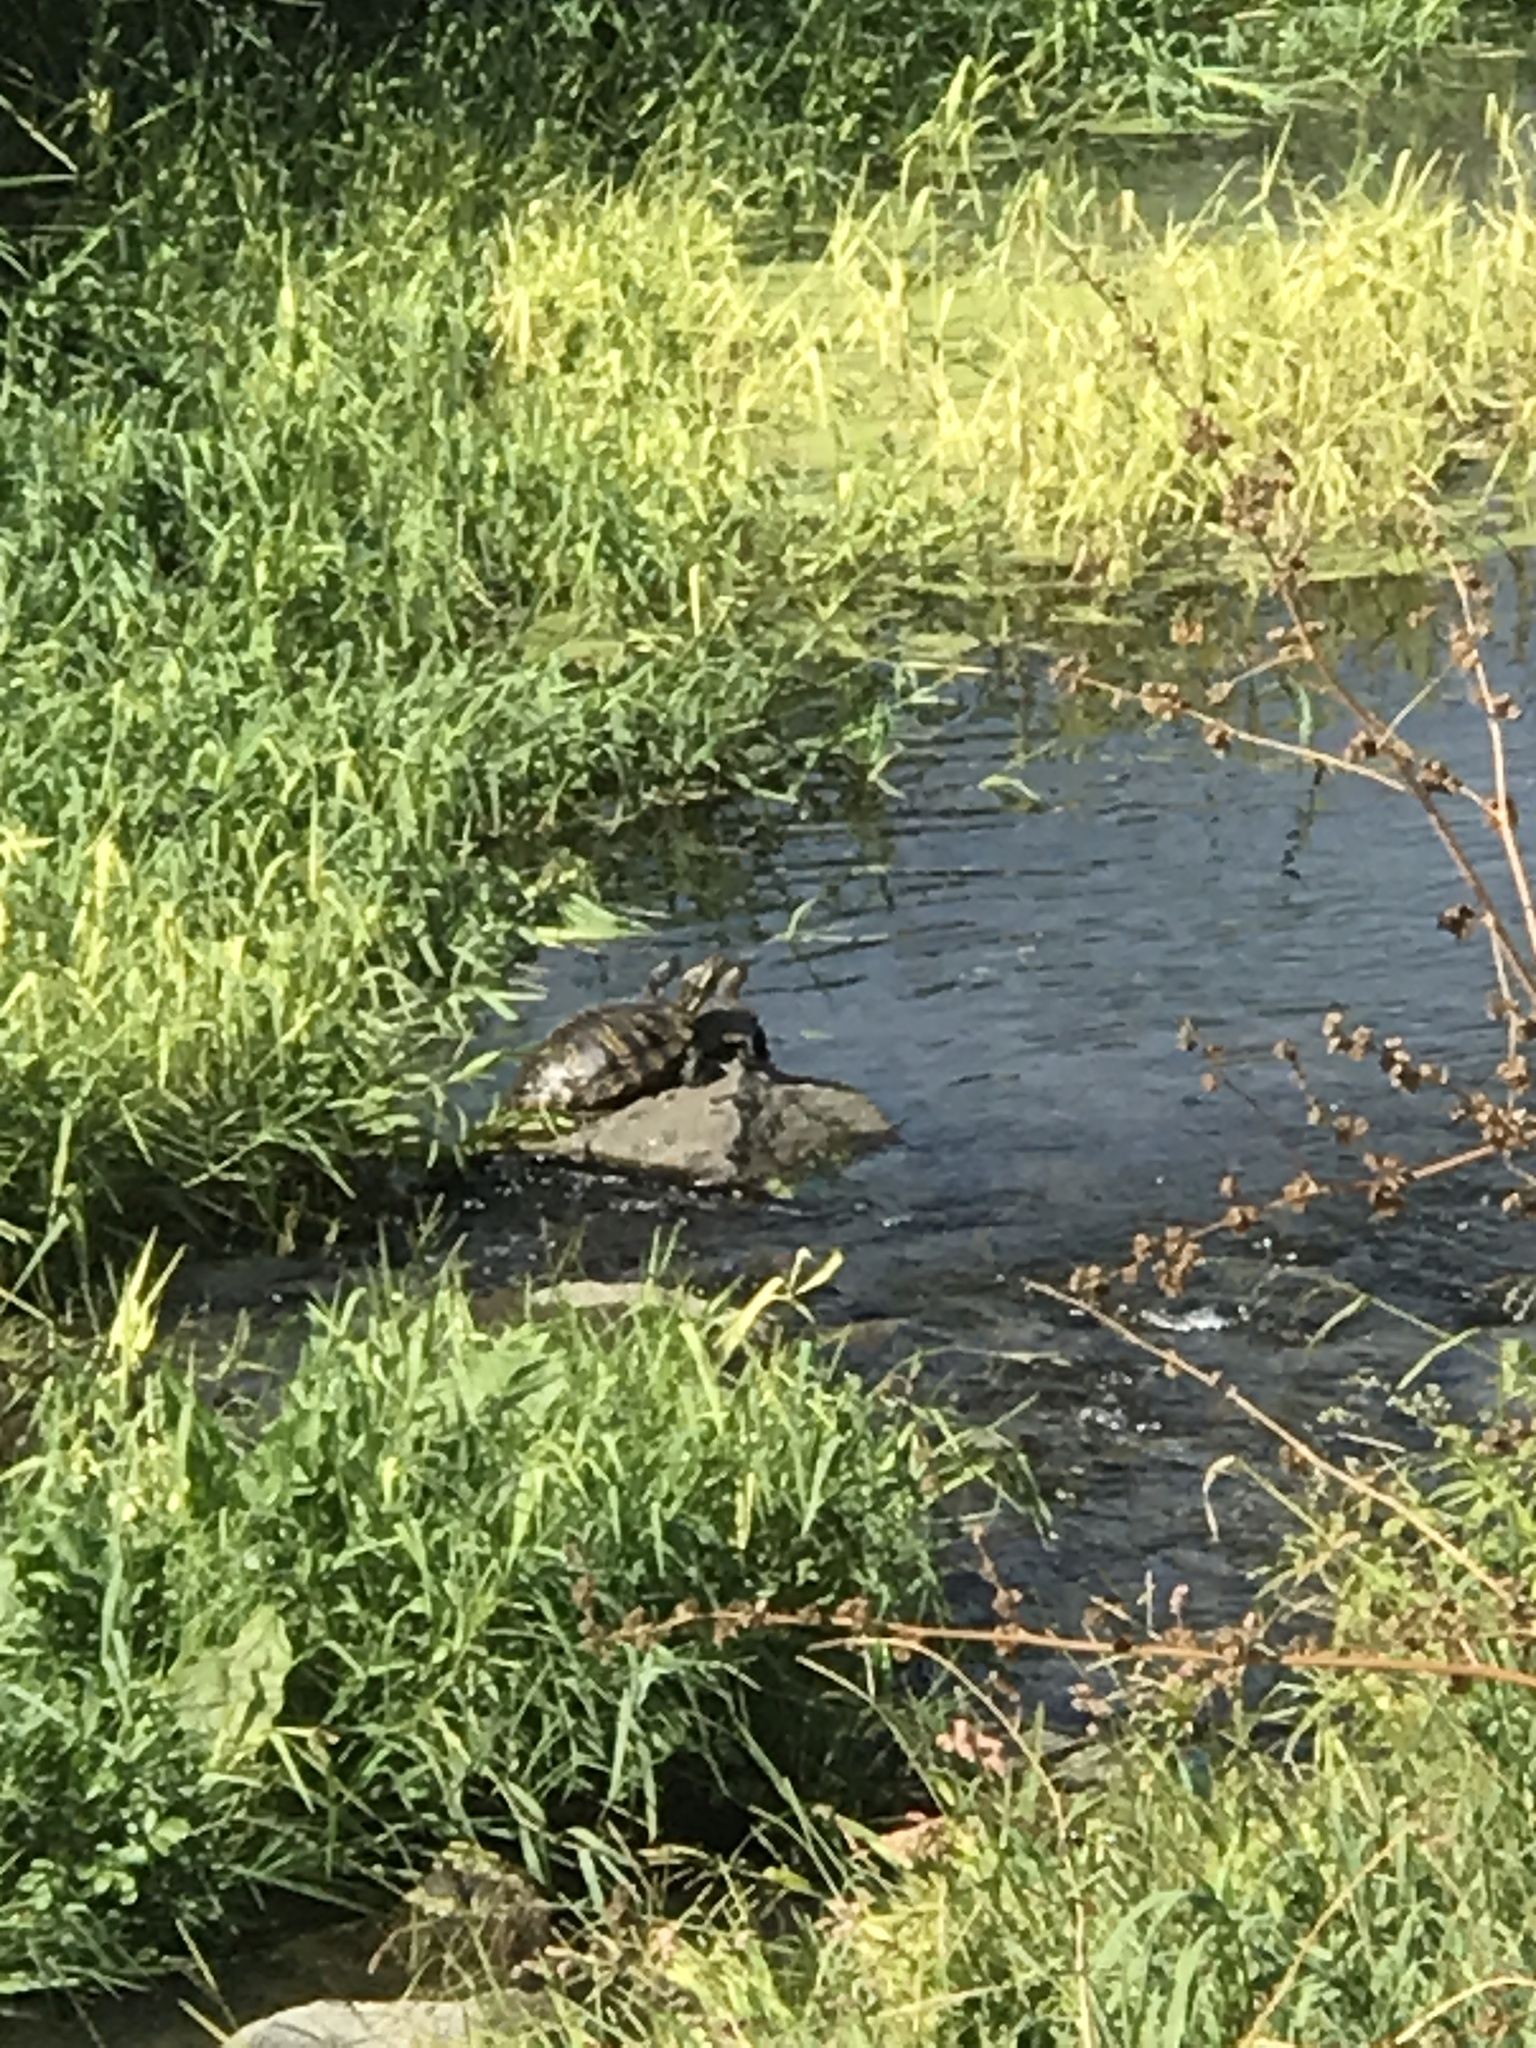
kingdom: Animalia
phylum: Chordata
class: Testudines
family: Emydidae
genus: Trachemys
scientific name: Trachemys scripta
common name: Slider
